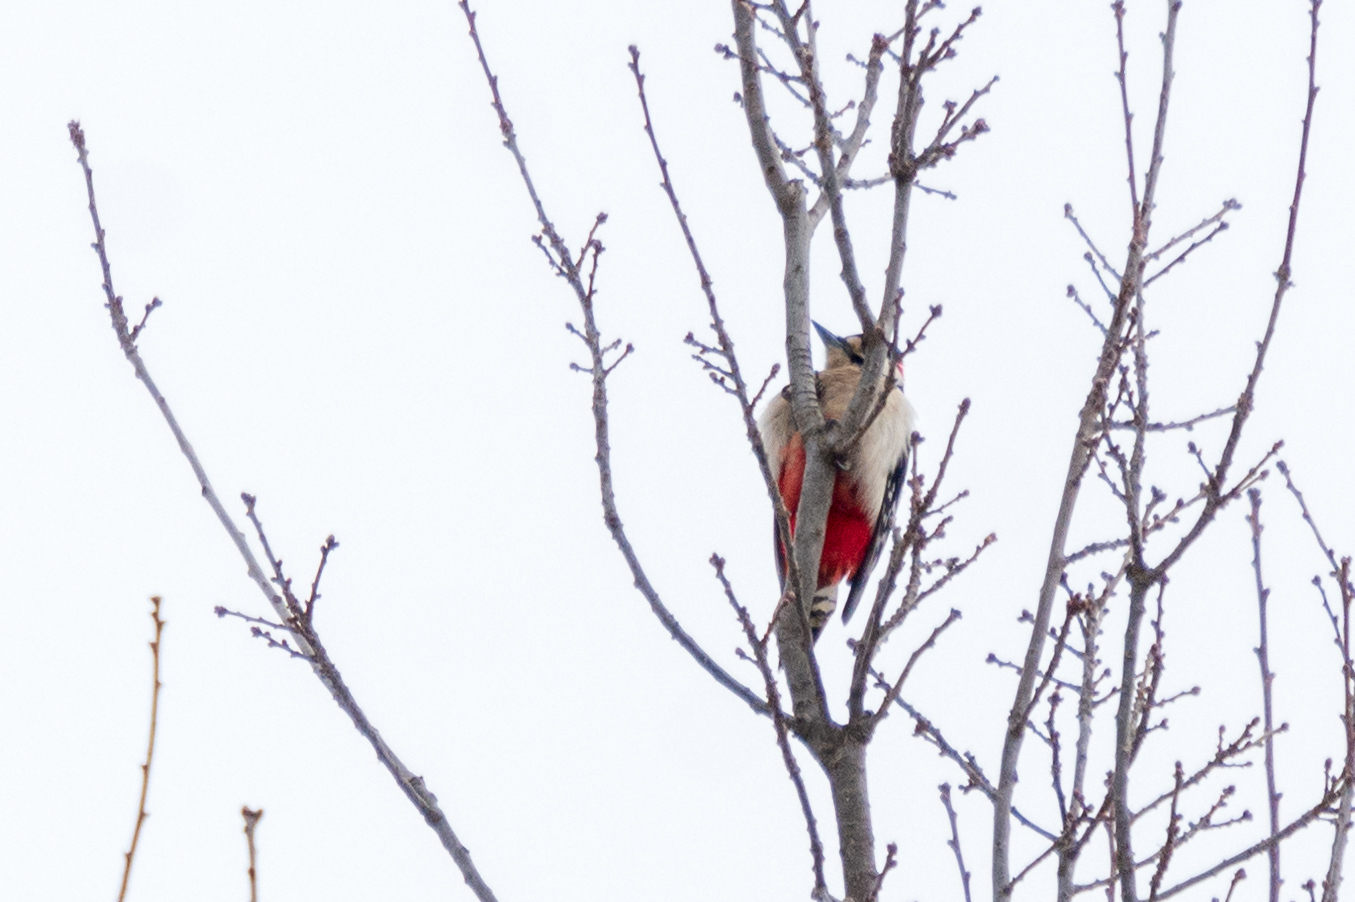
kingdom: Animalia
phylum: Chordata
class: Aves
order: Piciformes
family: Picidae
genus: Dendrocopos
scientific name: Dendrocopos major
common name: Great spotted woodpecker
